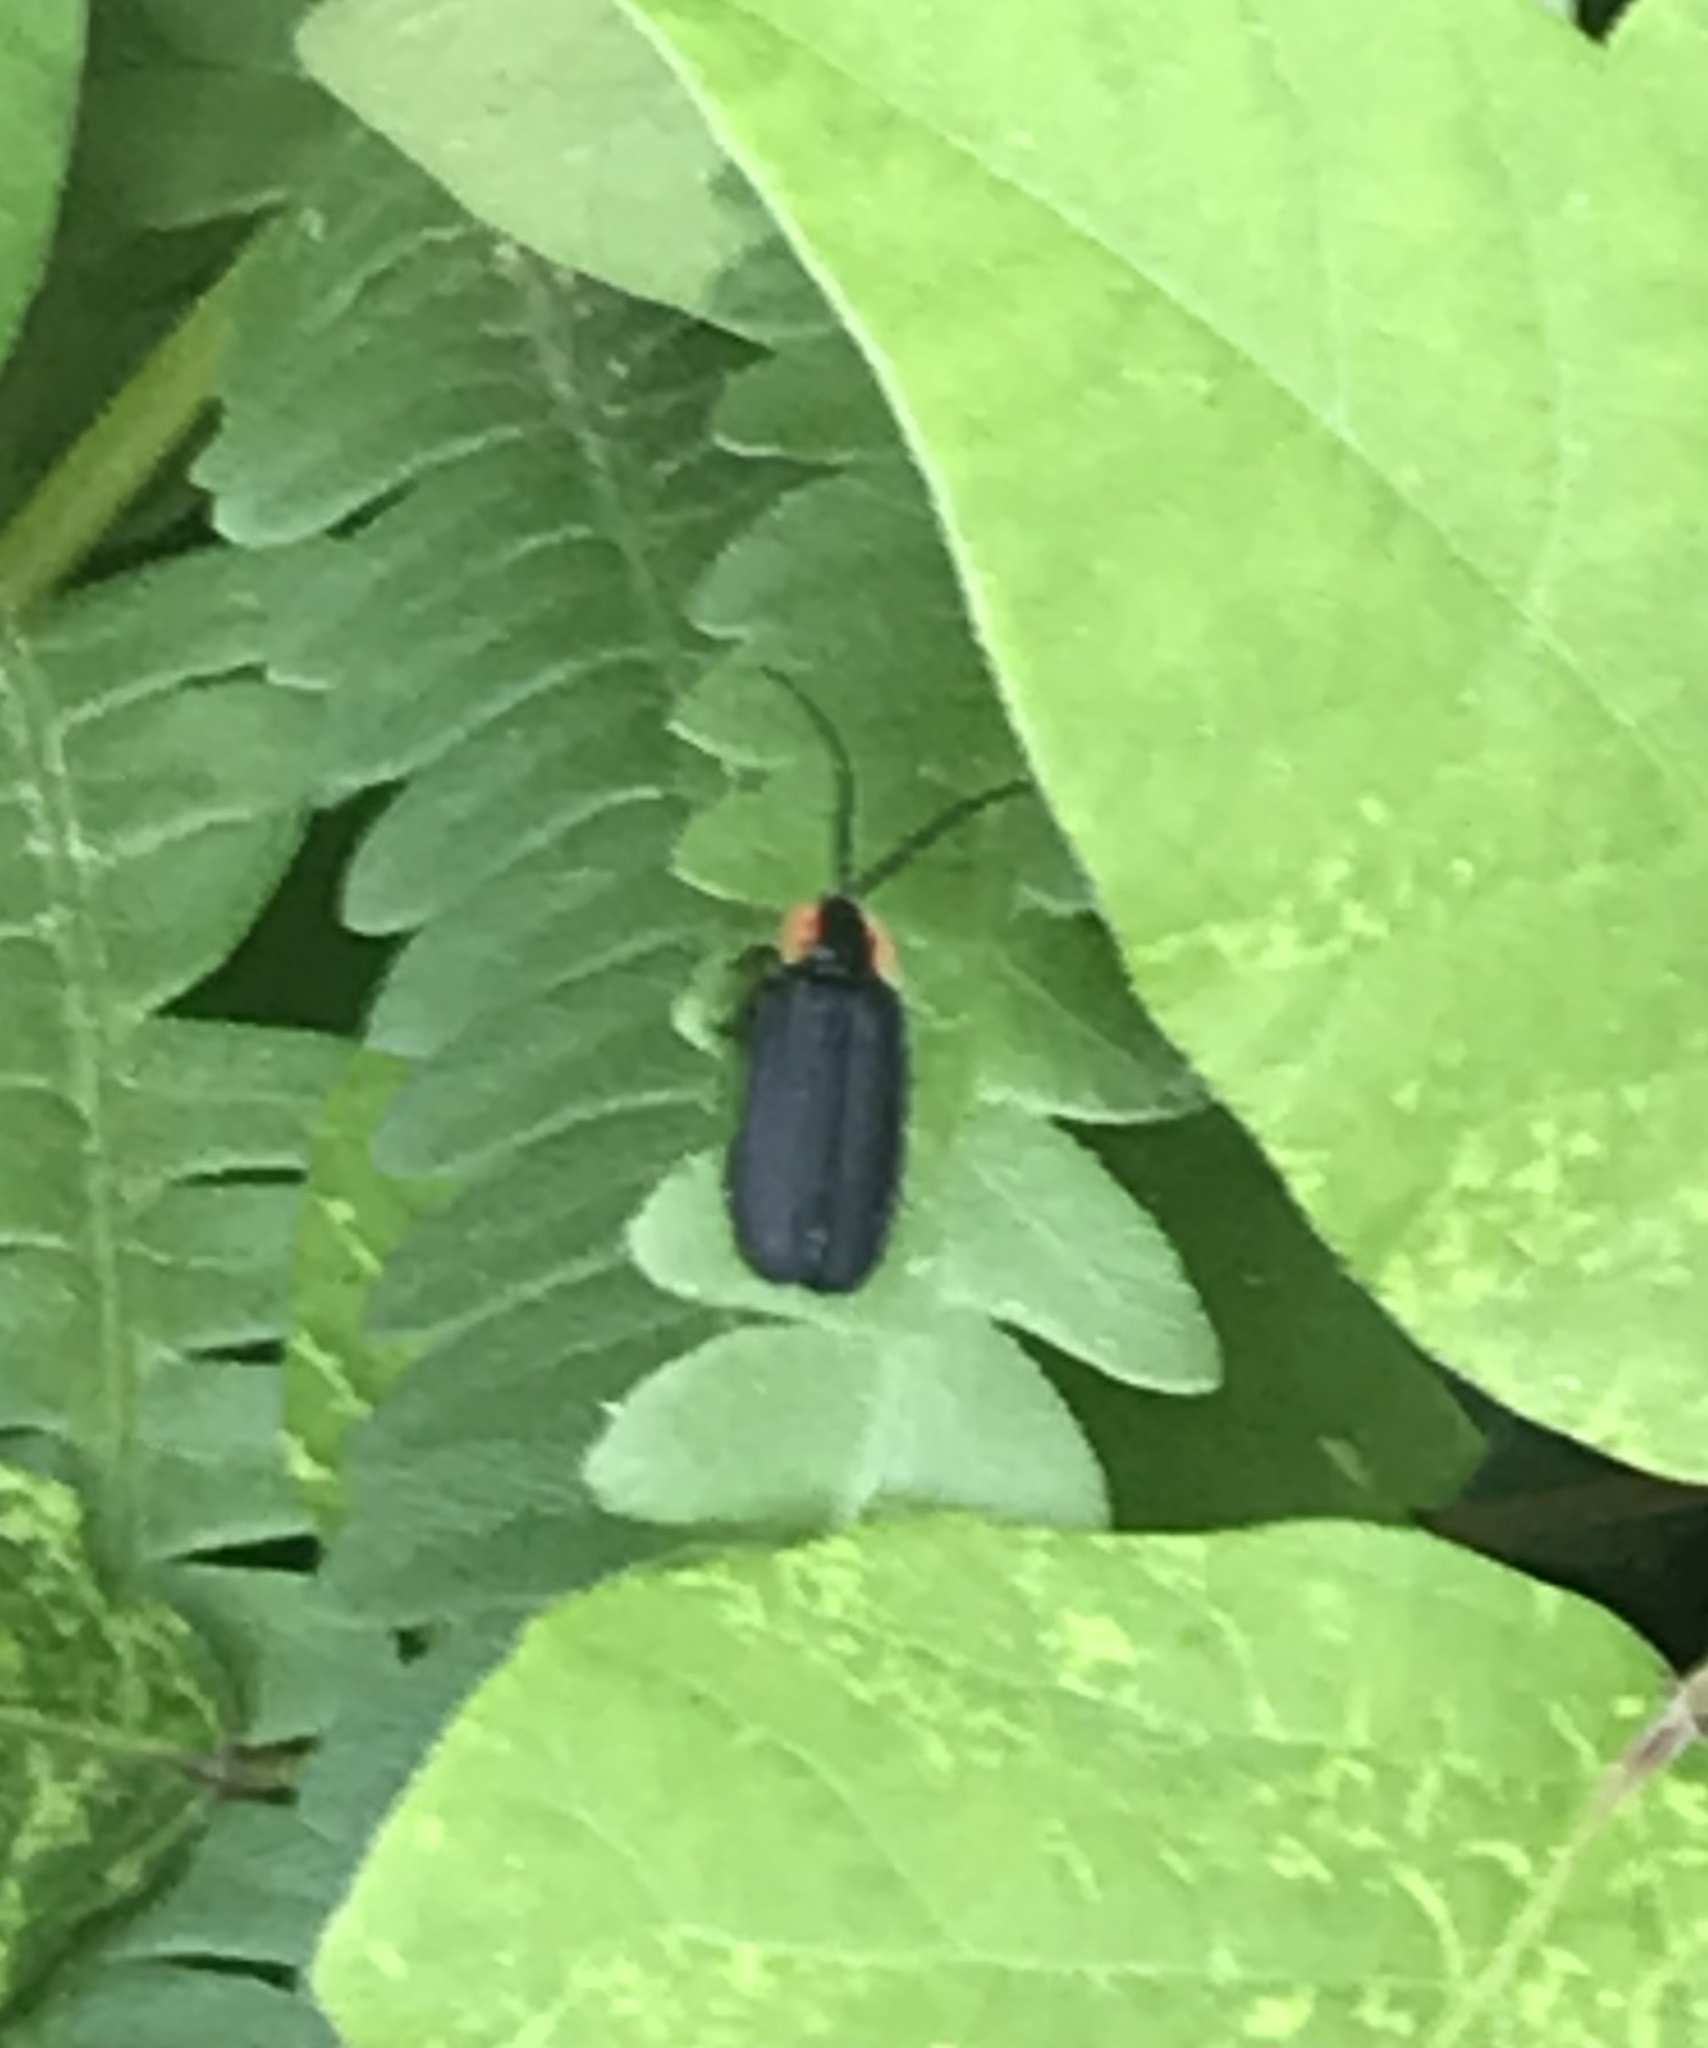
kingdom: Animalia
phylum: Arthropoda
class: Insecta
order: Coleoptera
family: Lampyridae
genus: Lucidota
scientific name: Lucidota atra
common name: Black firefly
